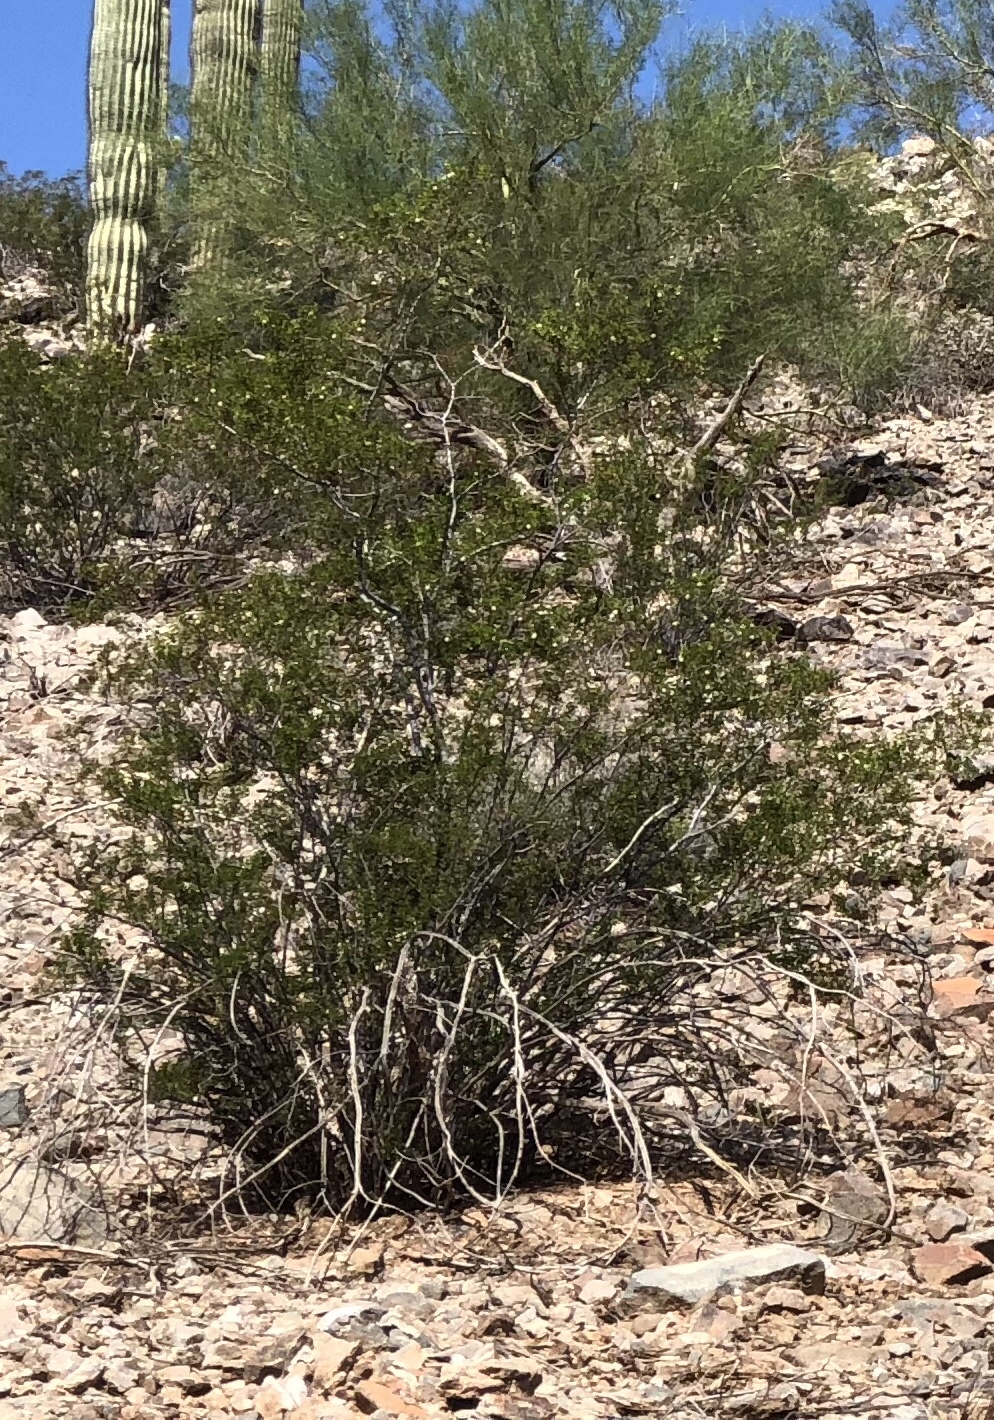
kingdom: Plantae
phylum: Tracheophyta
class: Magnoliopsida
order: Zygophyllales
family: Zygophyllaceae
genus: Larrea
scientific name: Larrea tridentata
